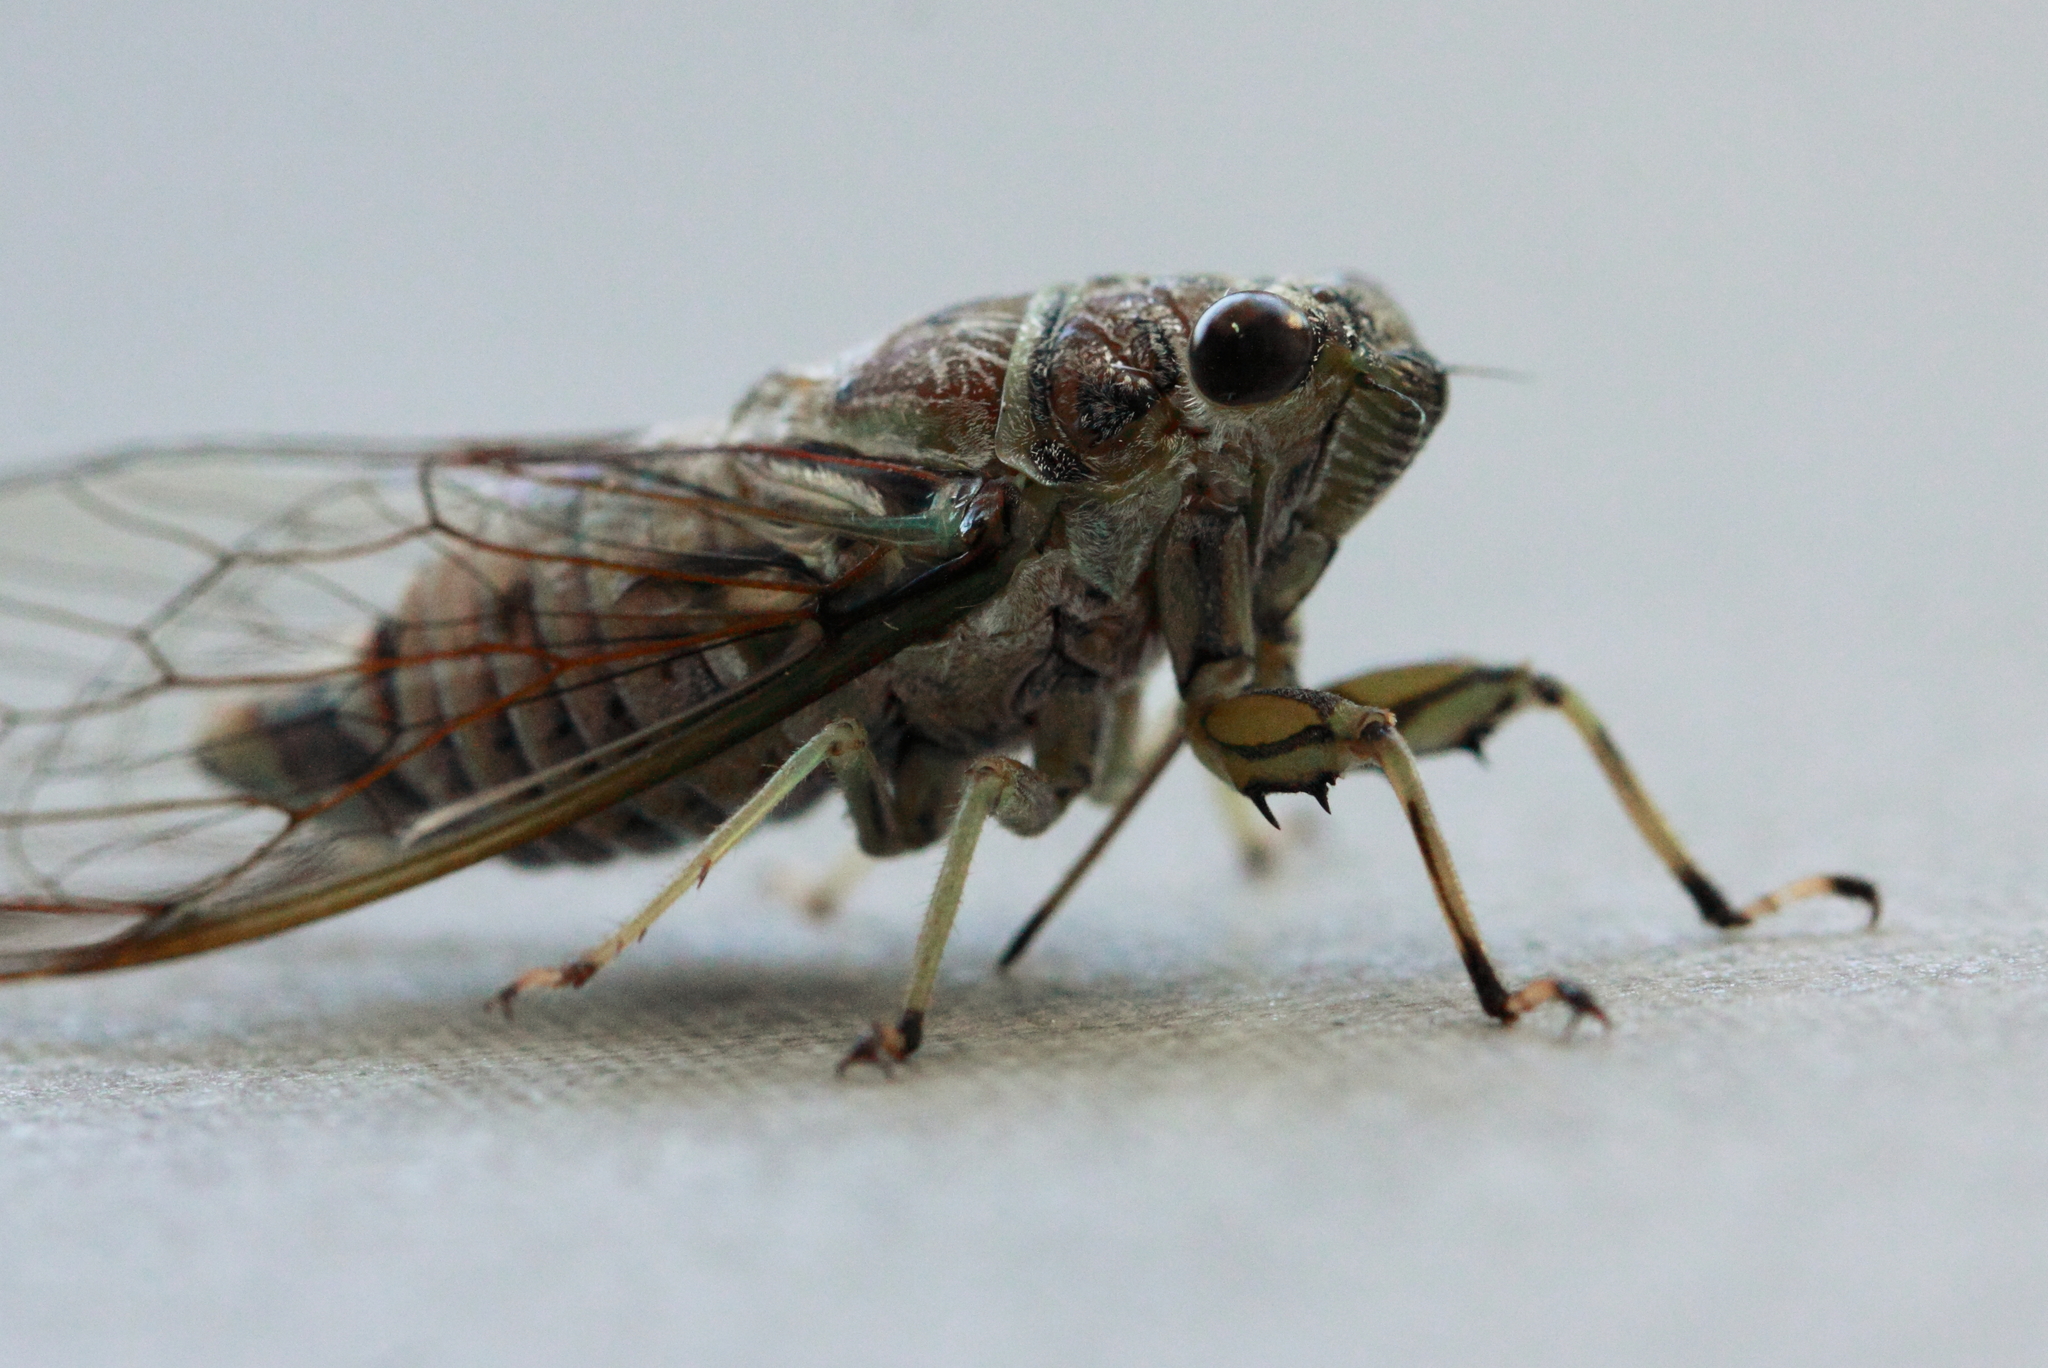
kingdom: Animalia
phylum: Arthropoda
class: Insecta
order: Hemiptera
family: Cicadidae
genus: Tamasa
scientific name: Tamasa tristigma
